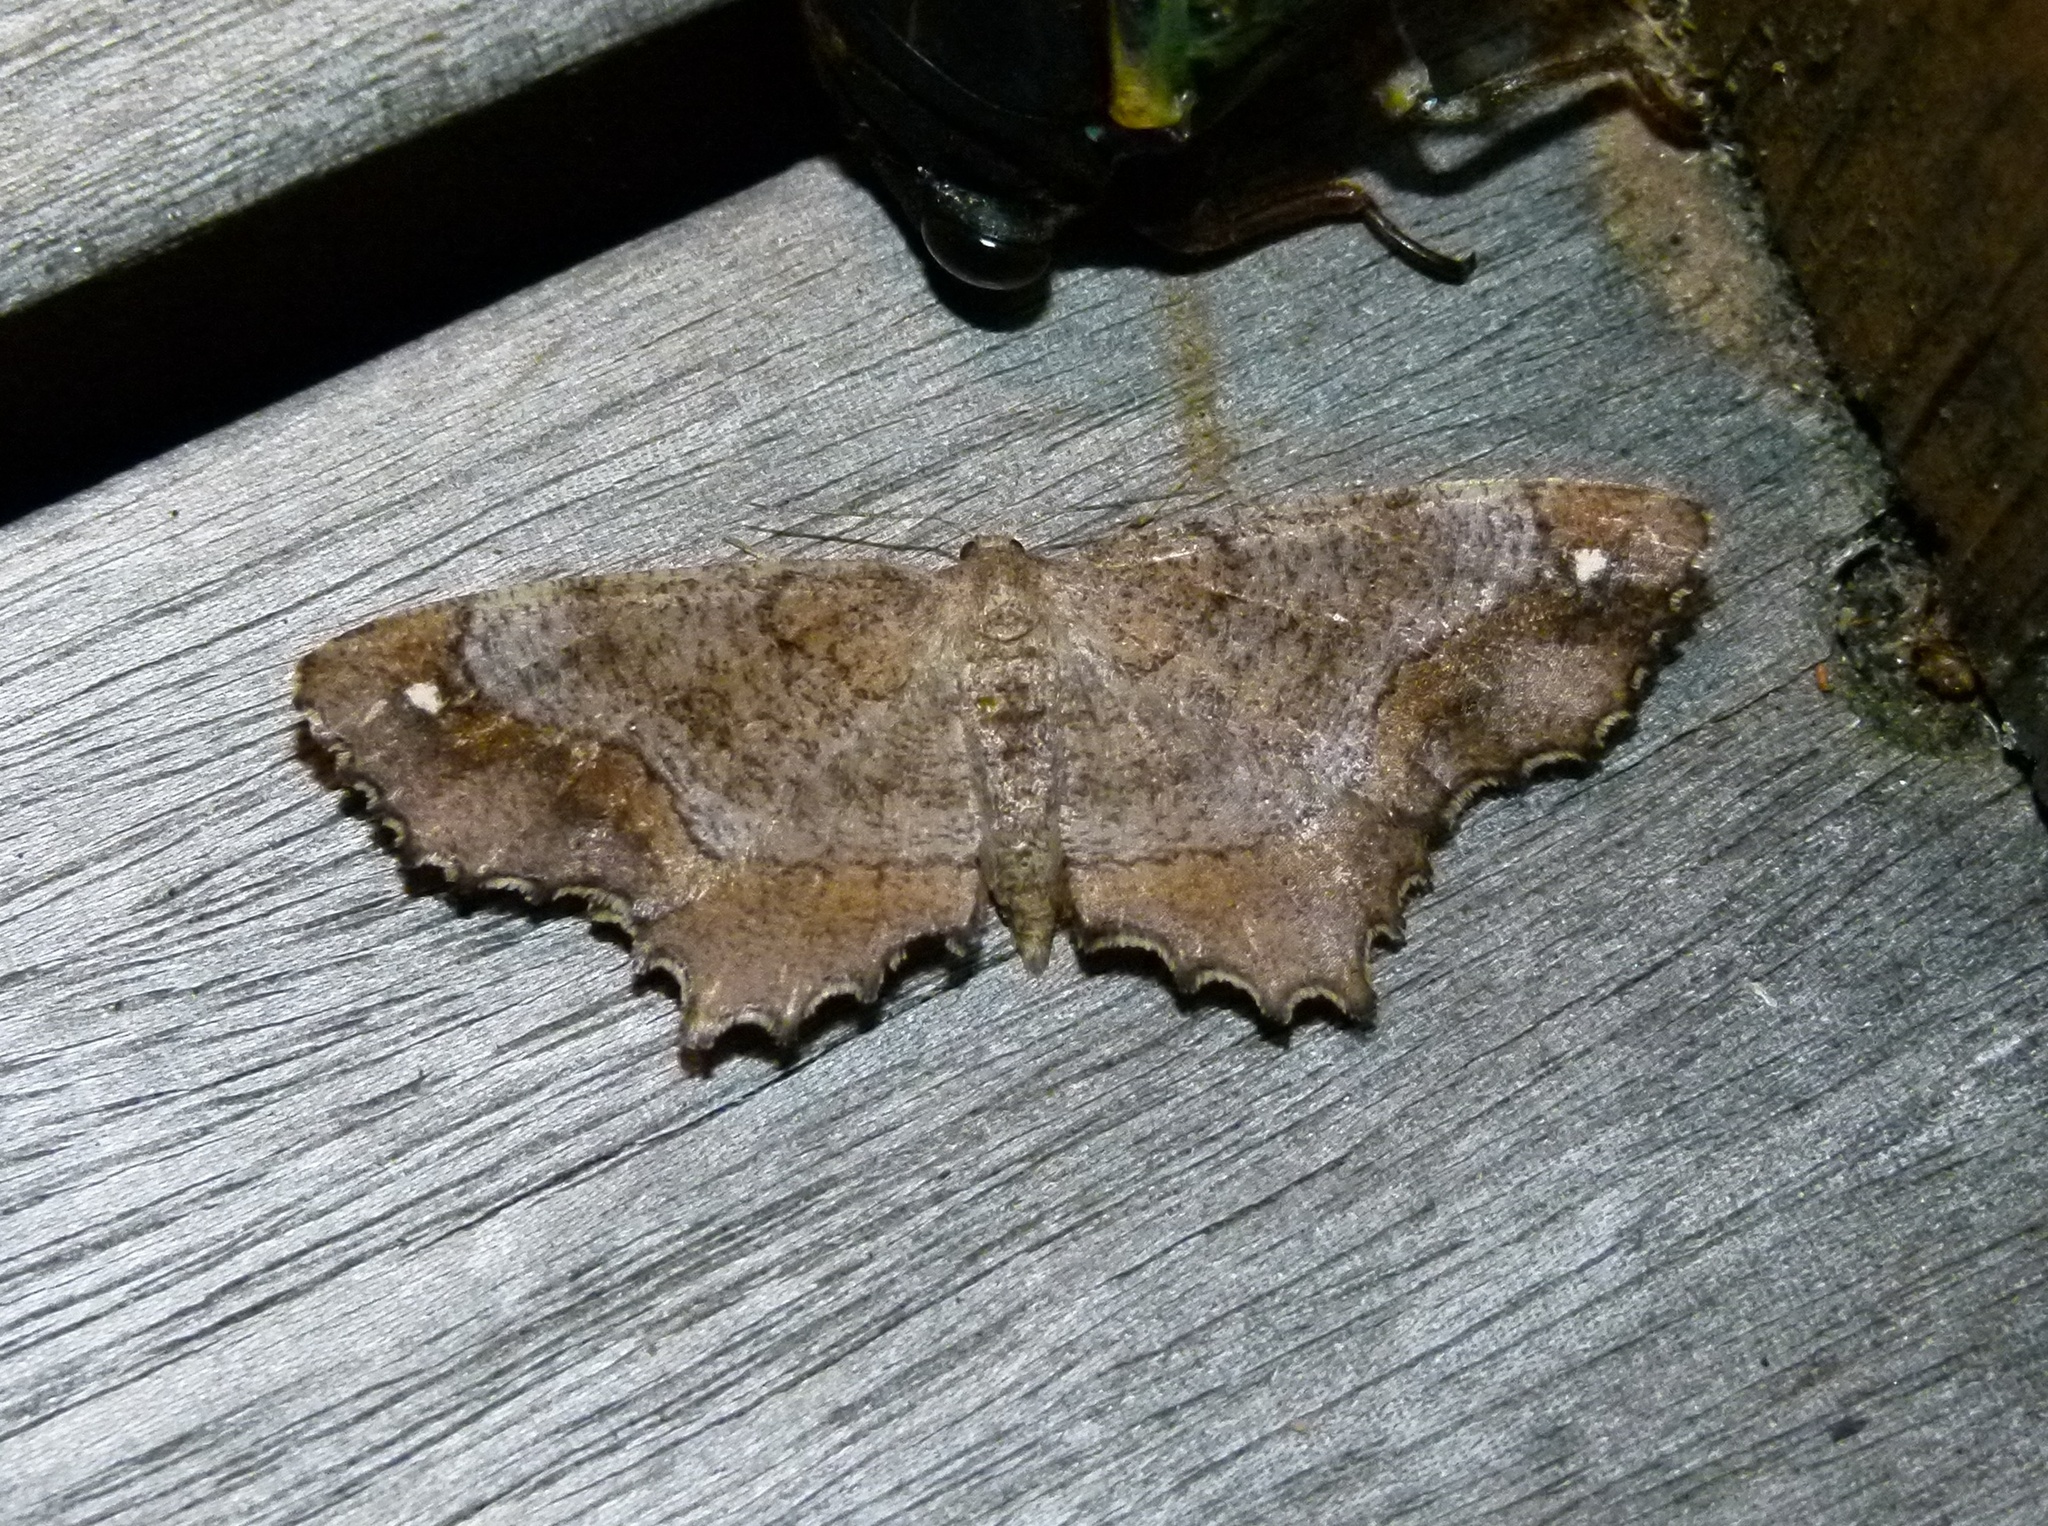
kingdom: Animalia
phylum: Arthropoda
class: Insecta
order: Lepidoptera
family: Geometridae
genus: Hypagyrtis
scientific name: Hypagyrtis unipunctata
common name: One-spotted variant
